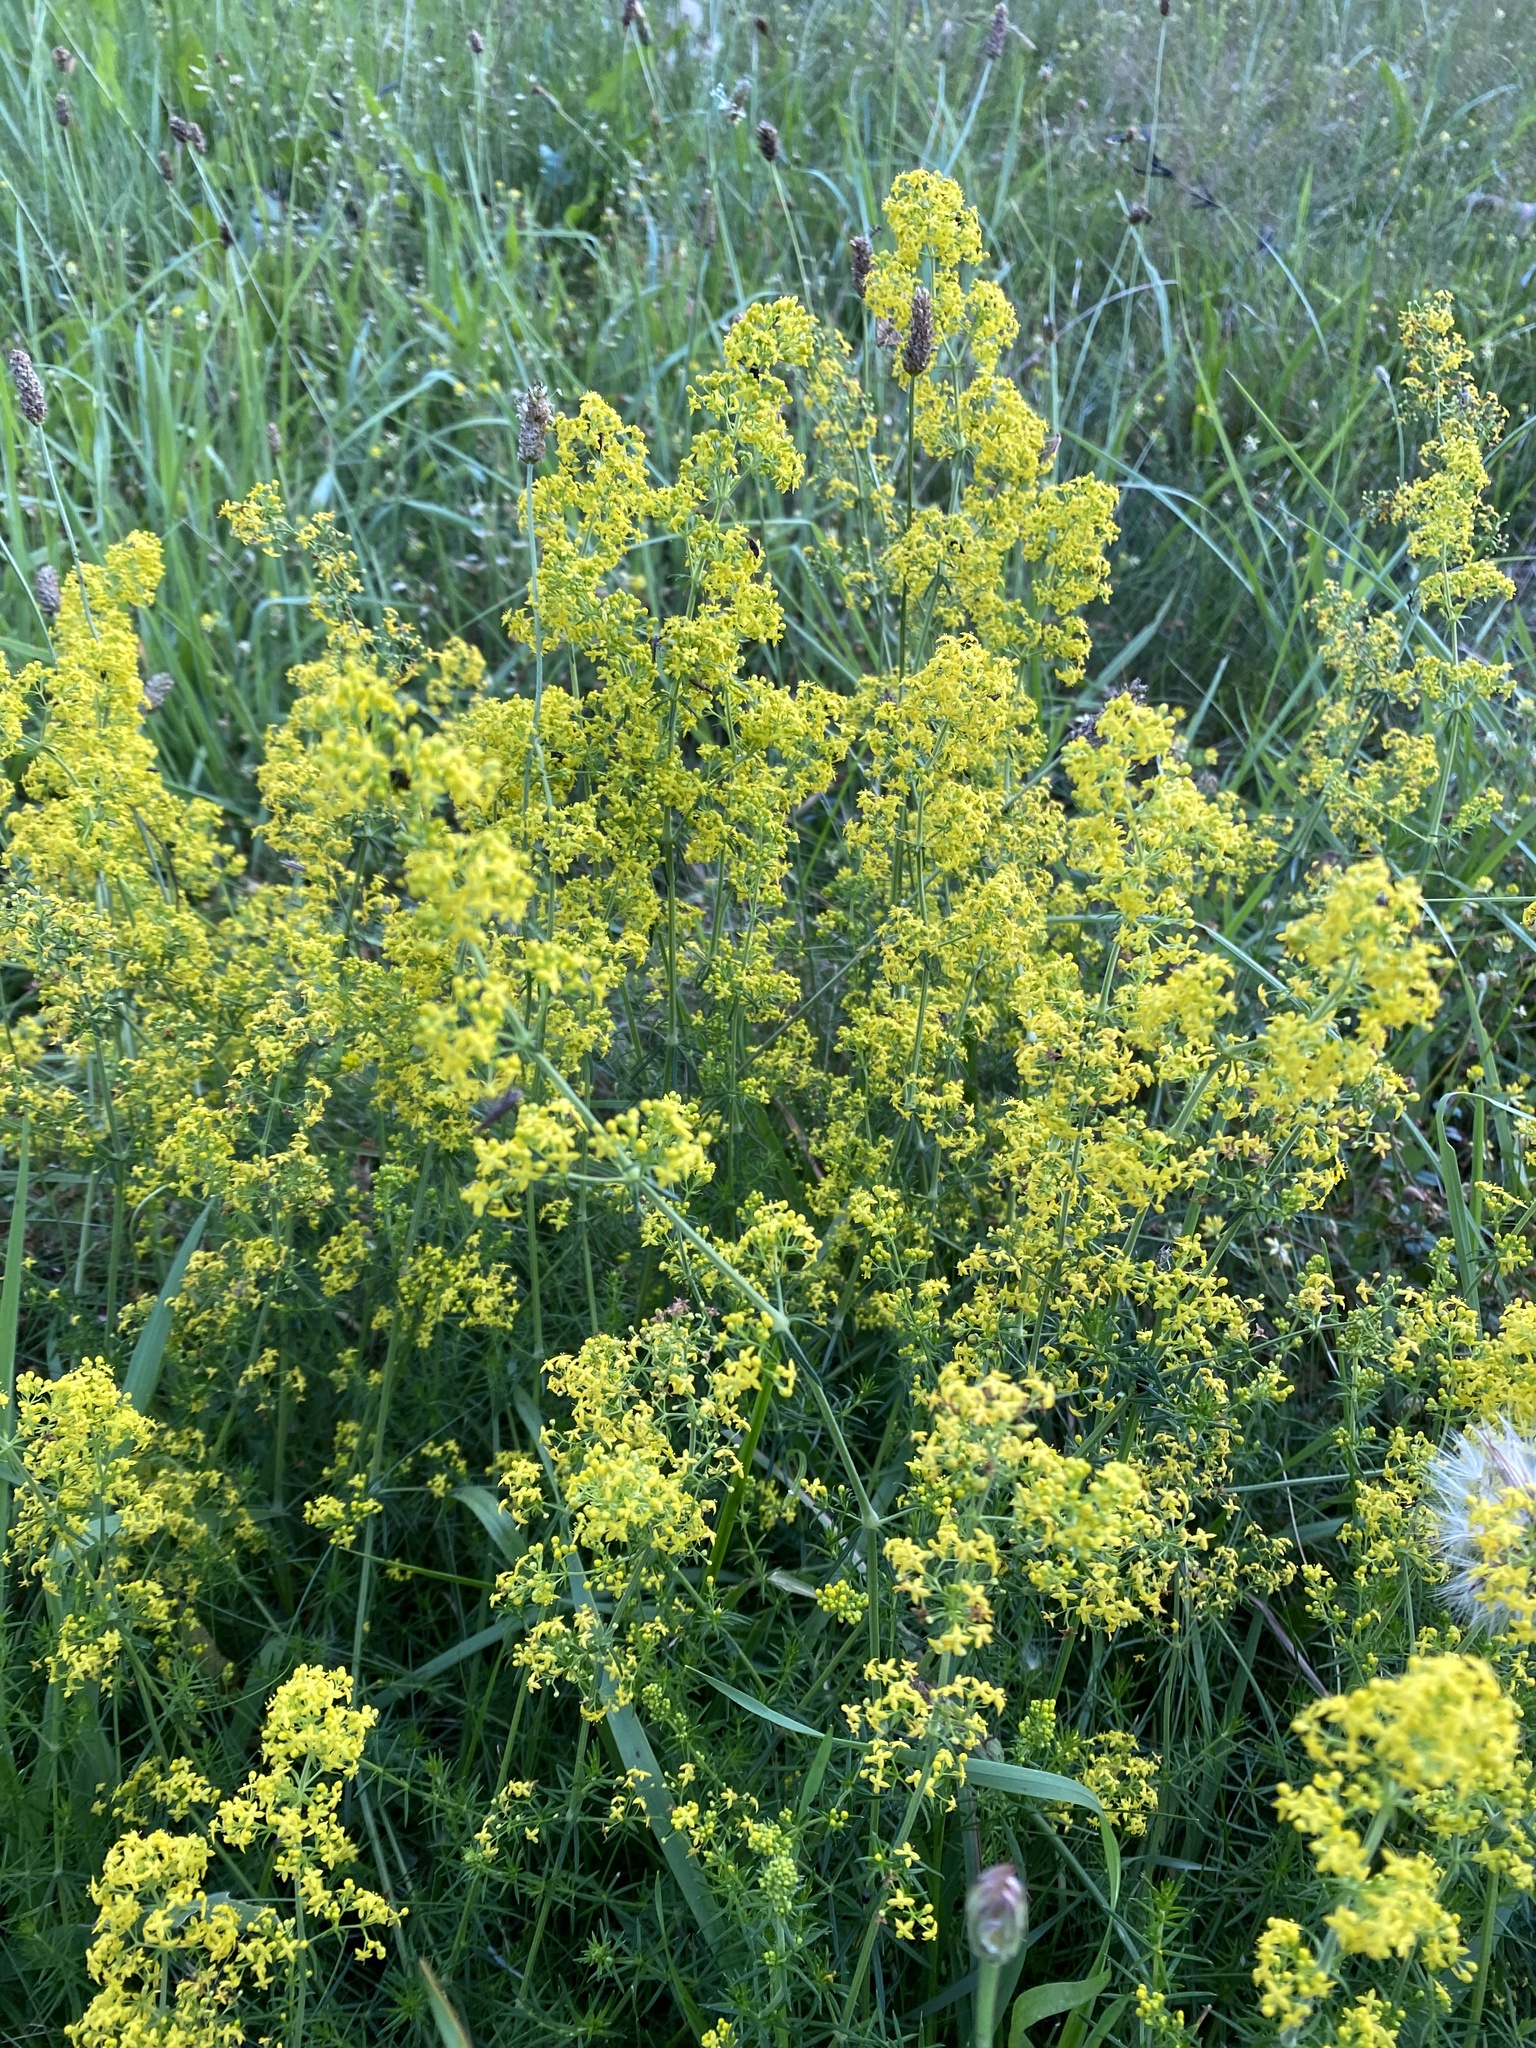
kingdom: Plantae
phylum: Tracheophyta
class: Magnoliopsida
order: Gentianales
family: Rubiaceae
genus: Galium
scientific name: Galium verum
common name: Lady's bedstraw
